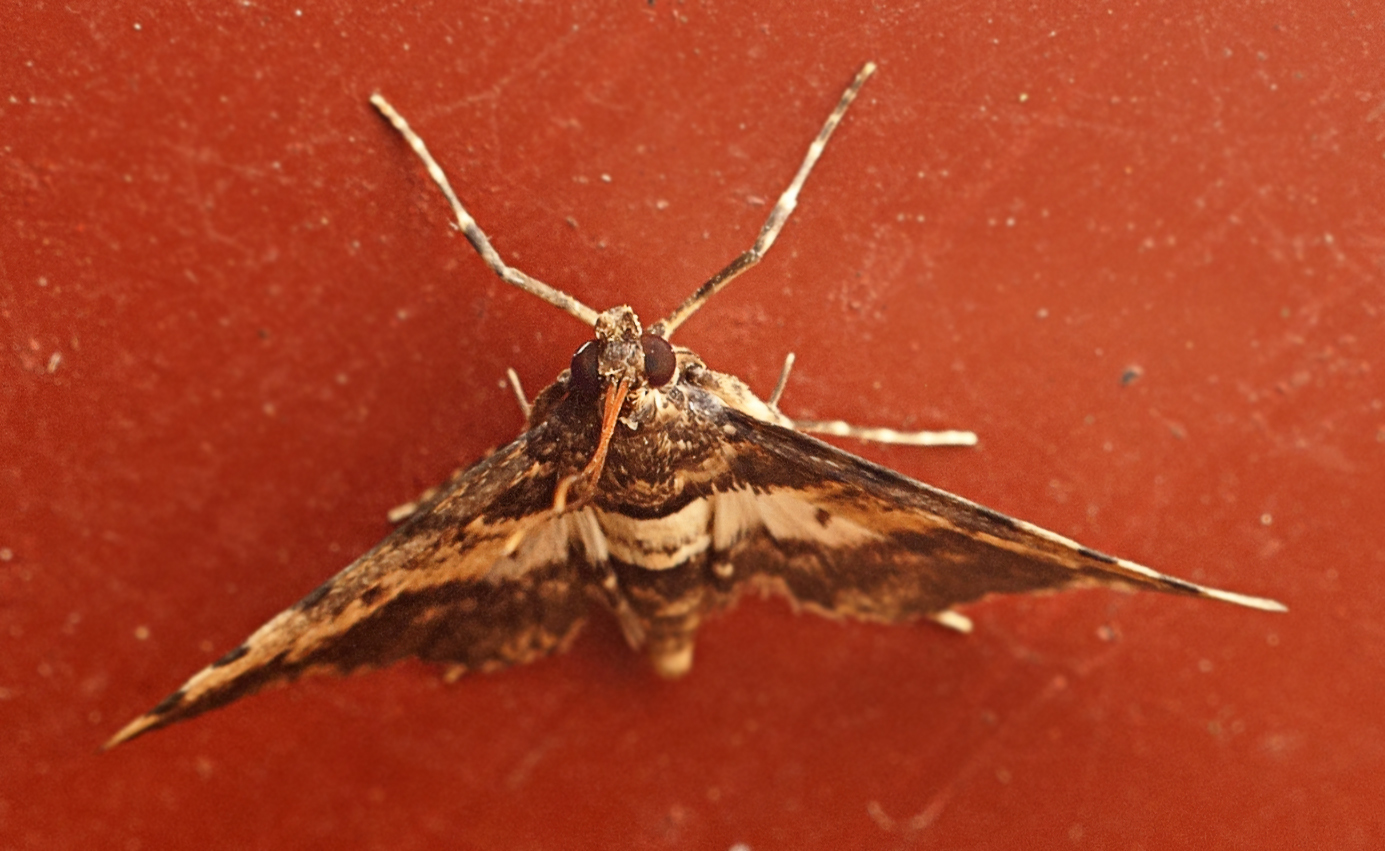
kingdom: Animalia
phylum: Arthropoda
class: Insecta
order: Lepidoptera
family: Crambidae
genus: Nacoleia
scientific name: Nacoleia amphicedalis
